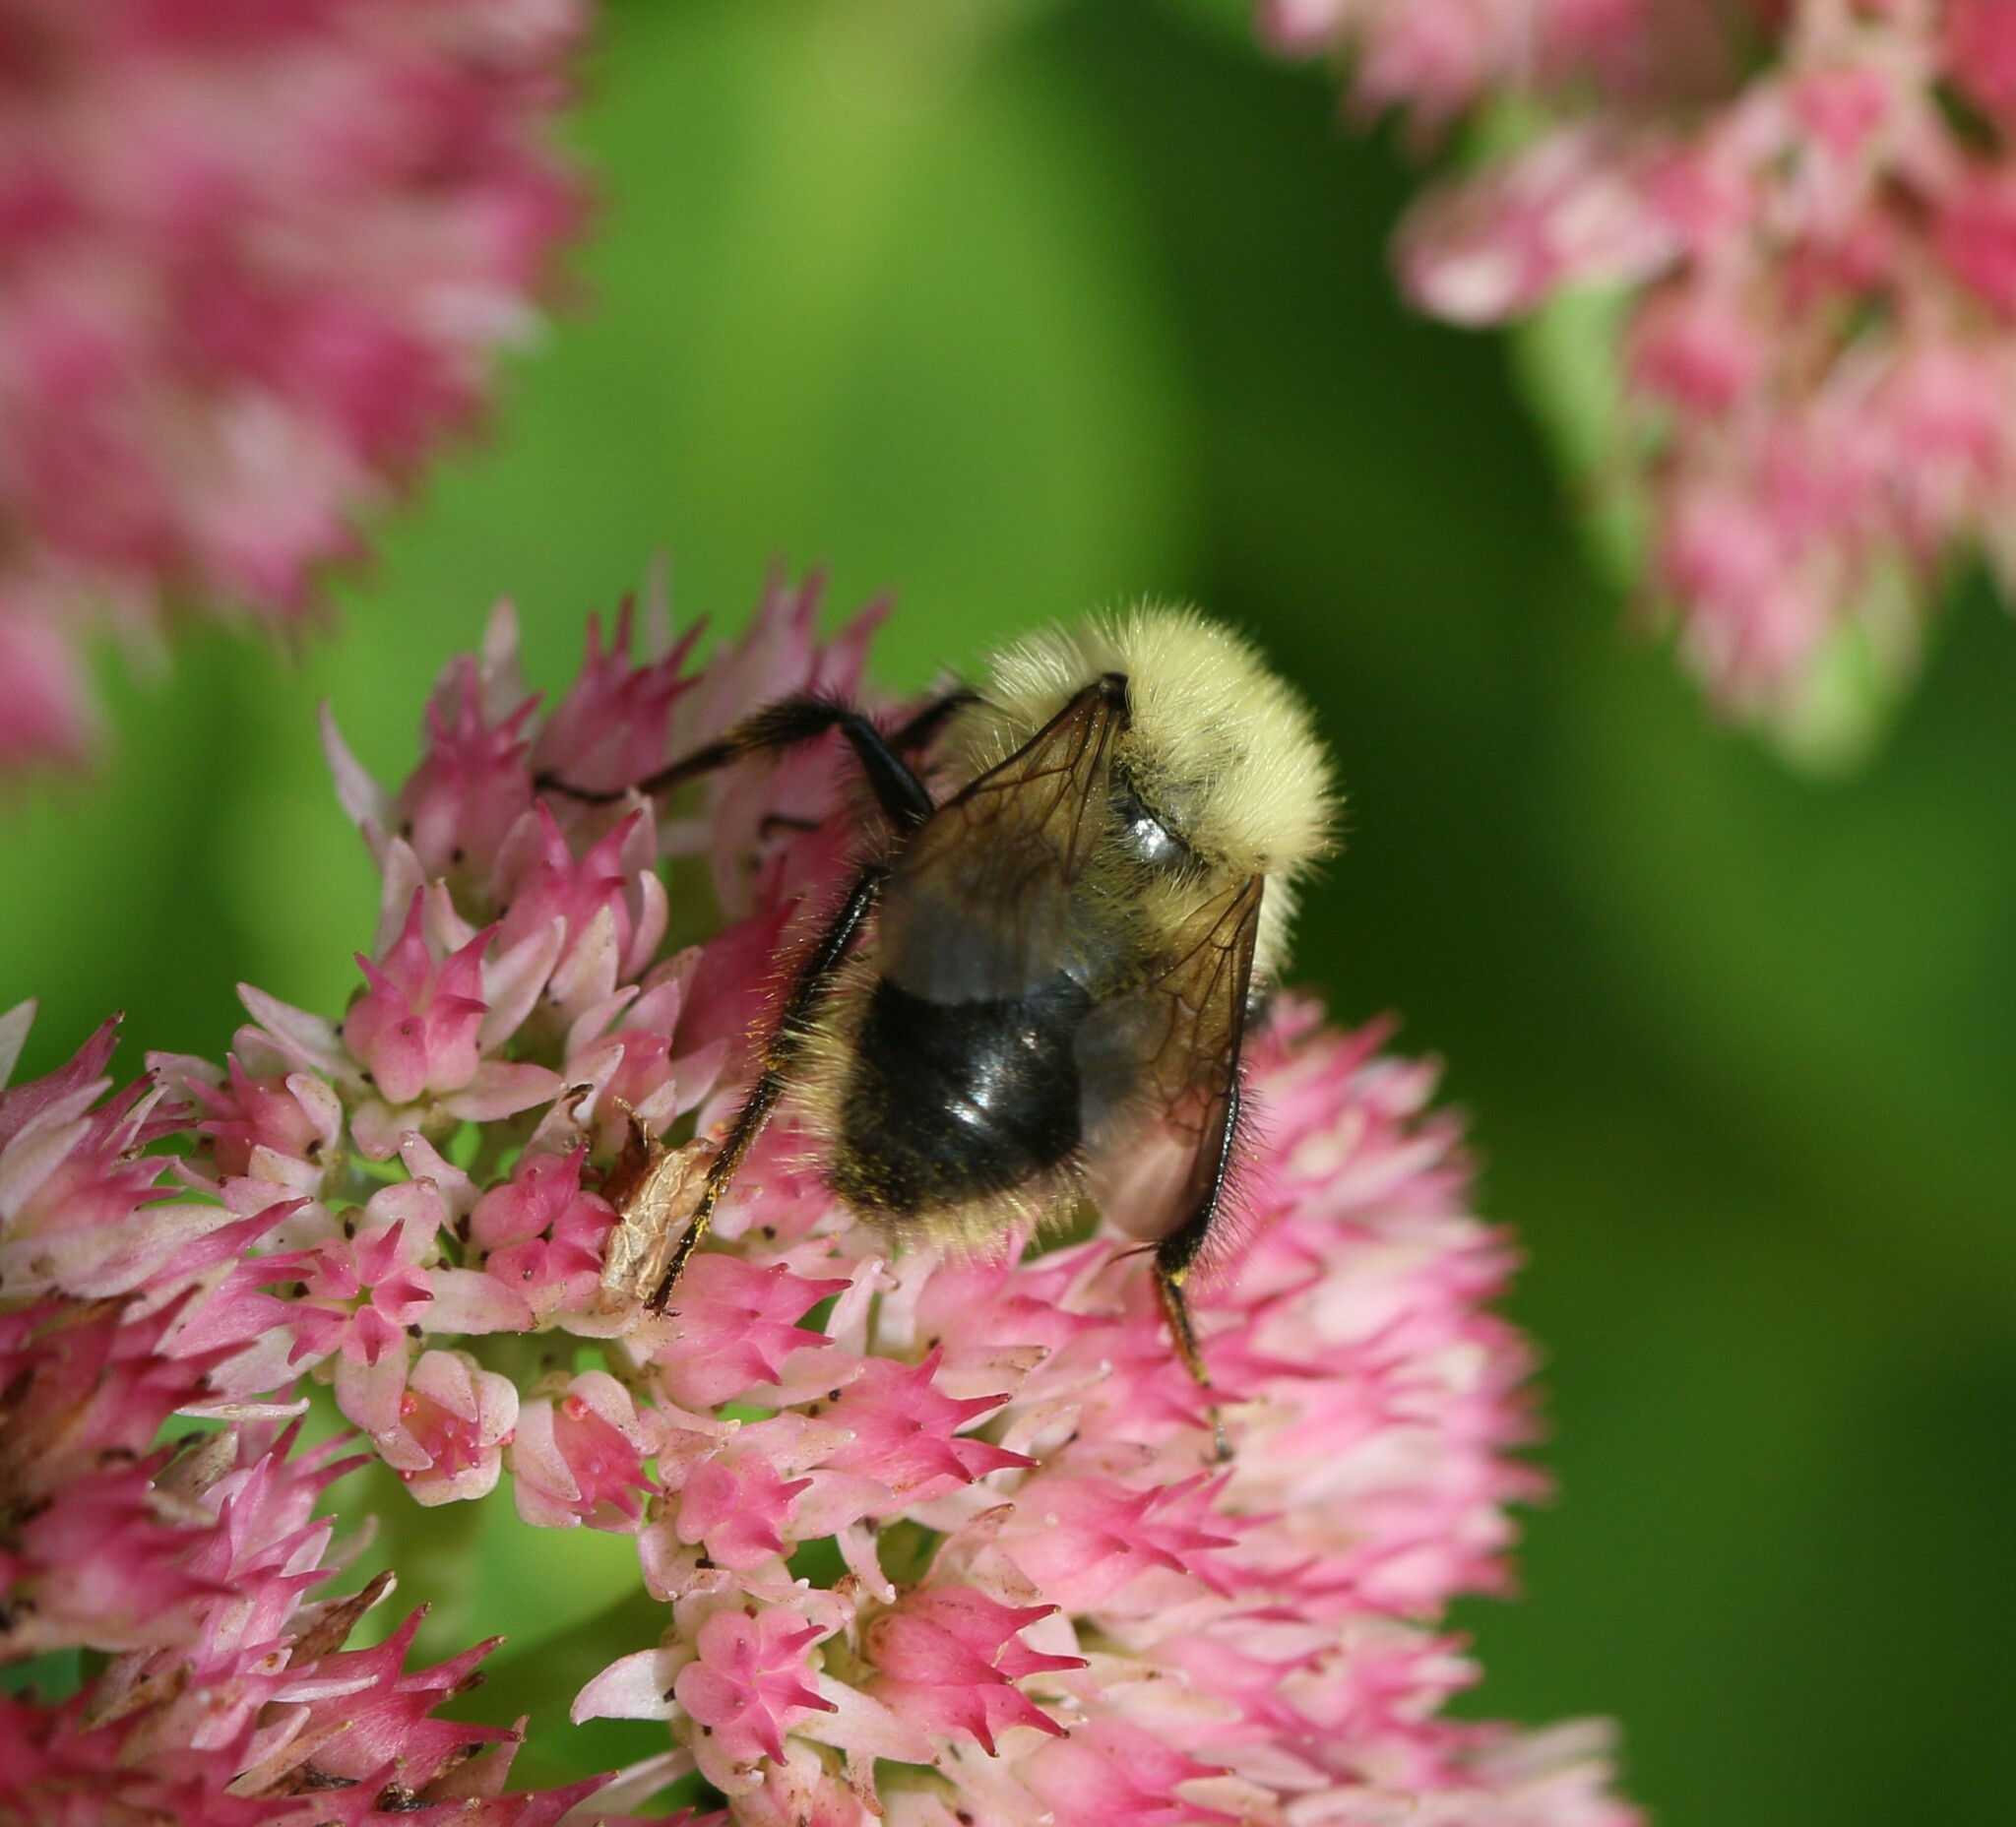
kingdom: Animalia
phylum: Arthropoda
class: Insecta
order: Hymenoptera
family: Apidae
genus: Pyrobombus
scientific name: Pyrobombus
